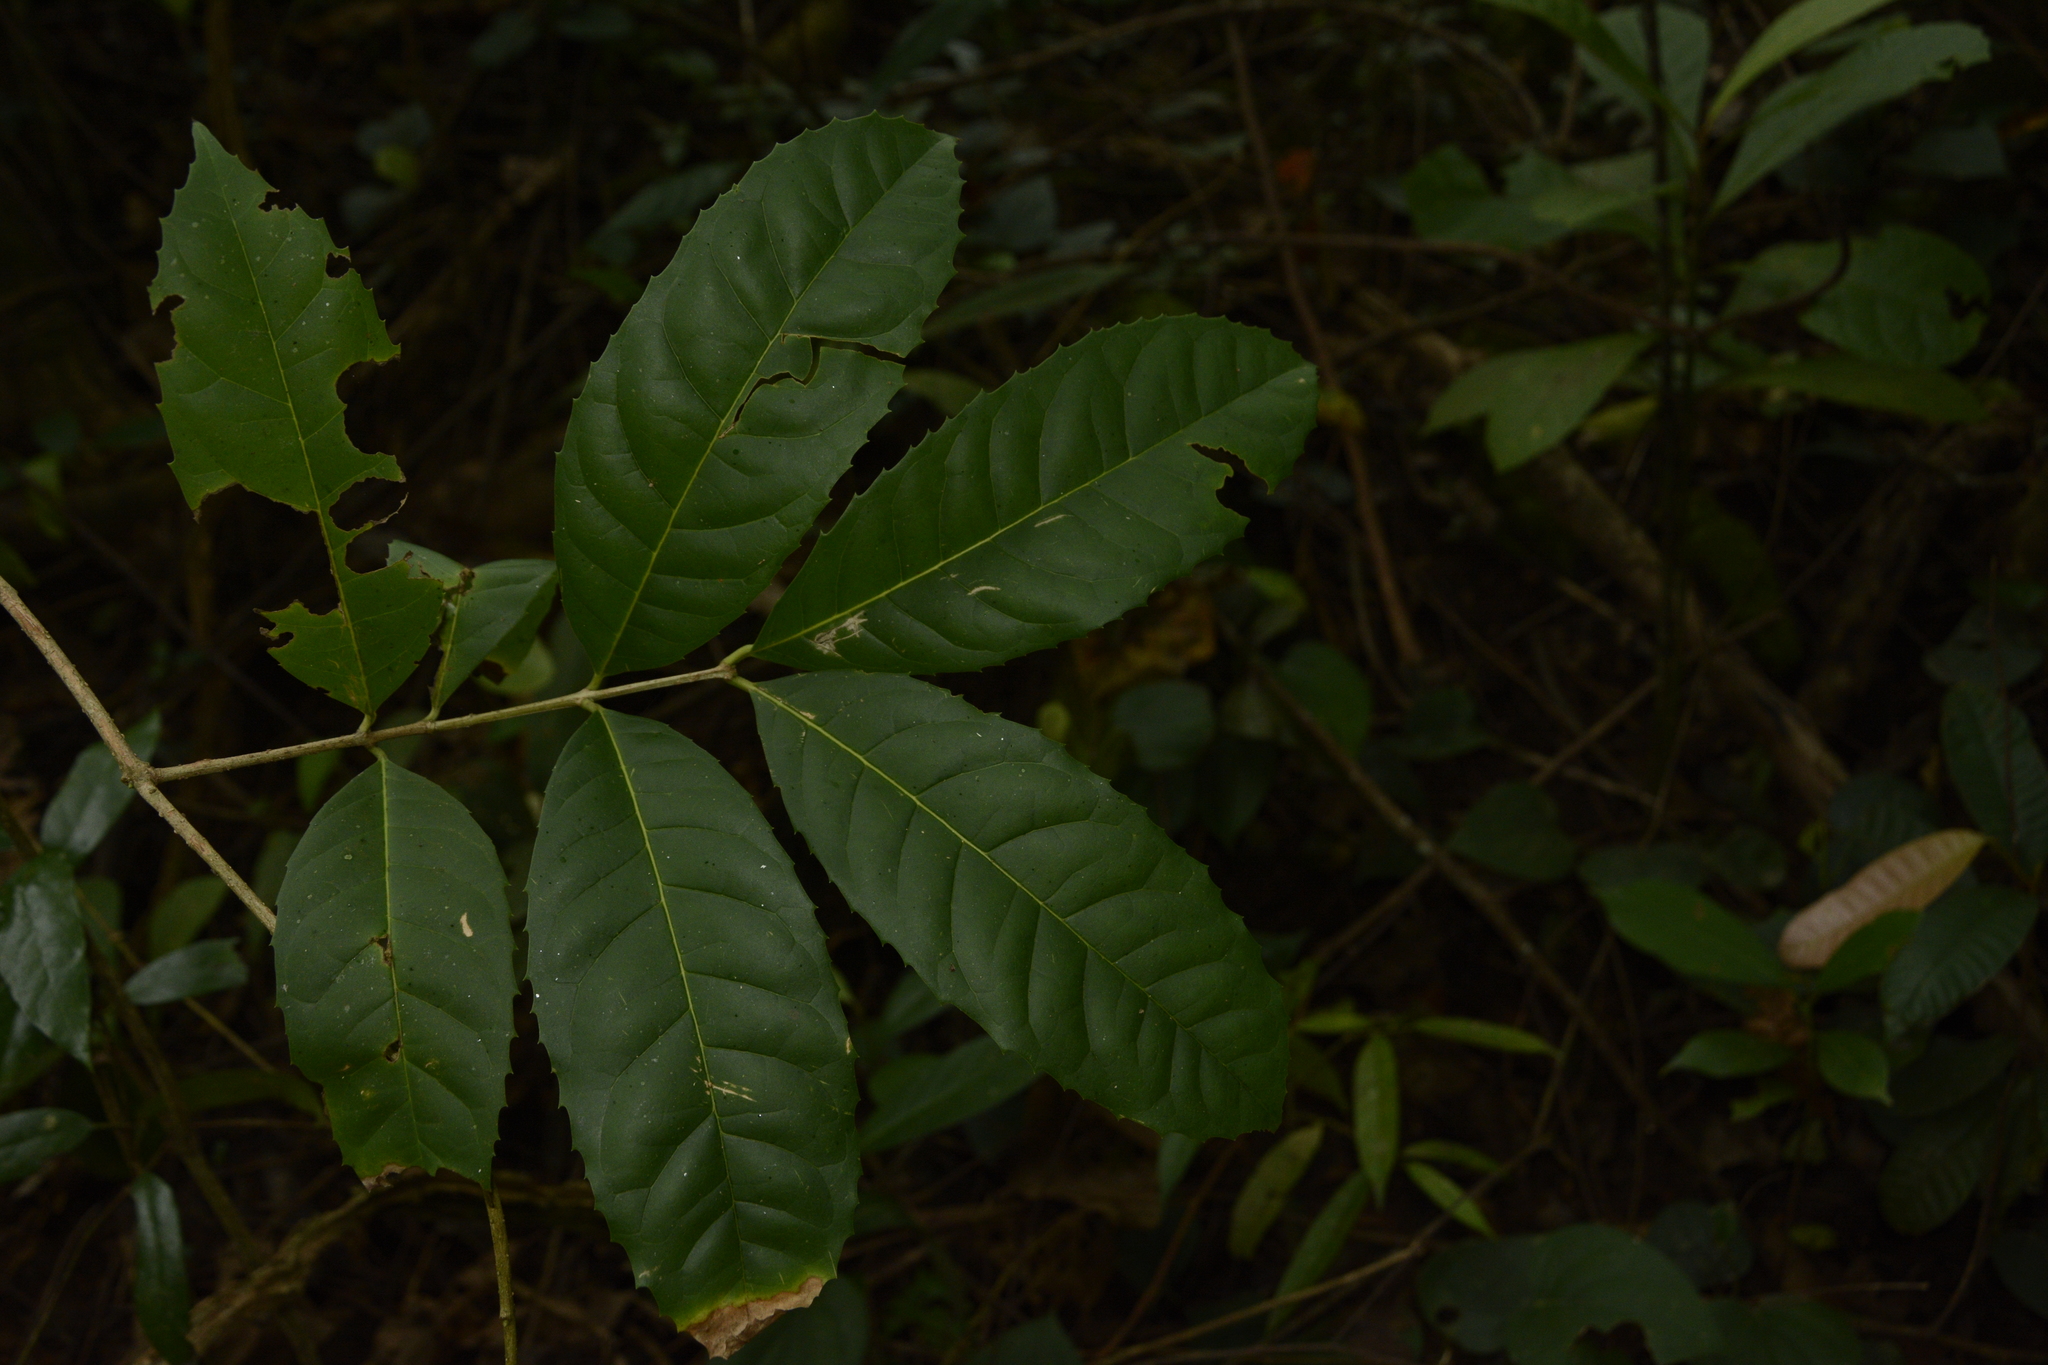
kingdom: Plantae
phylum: Tracheophyta
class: Magnoliopsida
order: Lamiales
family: Oleaceae
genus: Tetrapilus
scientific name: Tetrapilus dioicus
